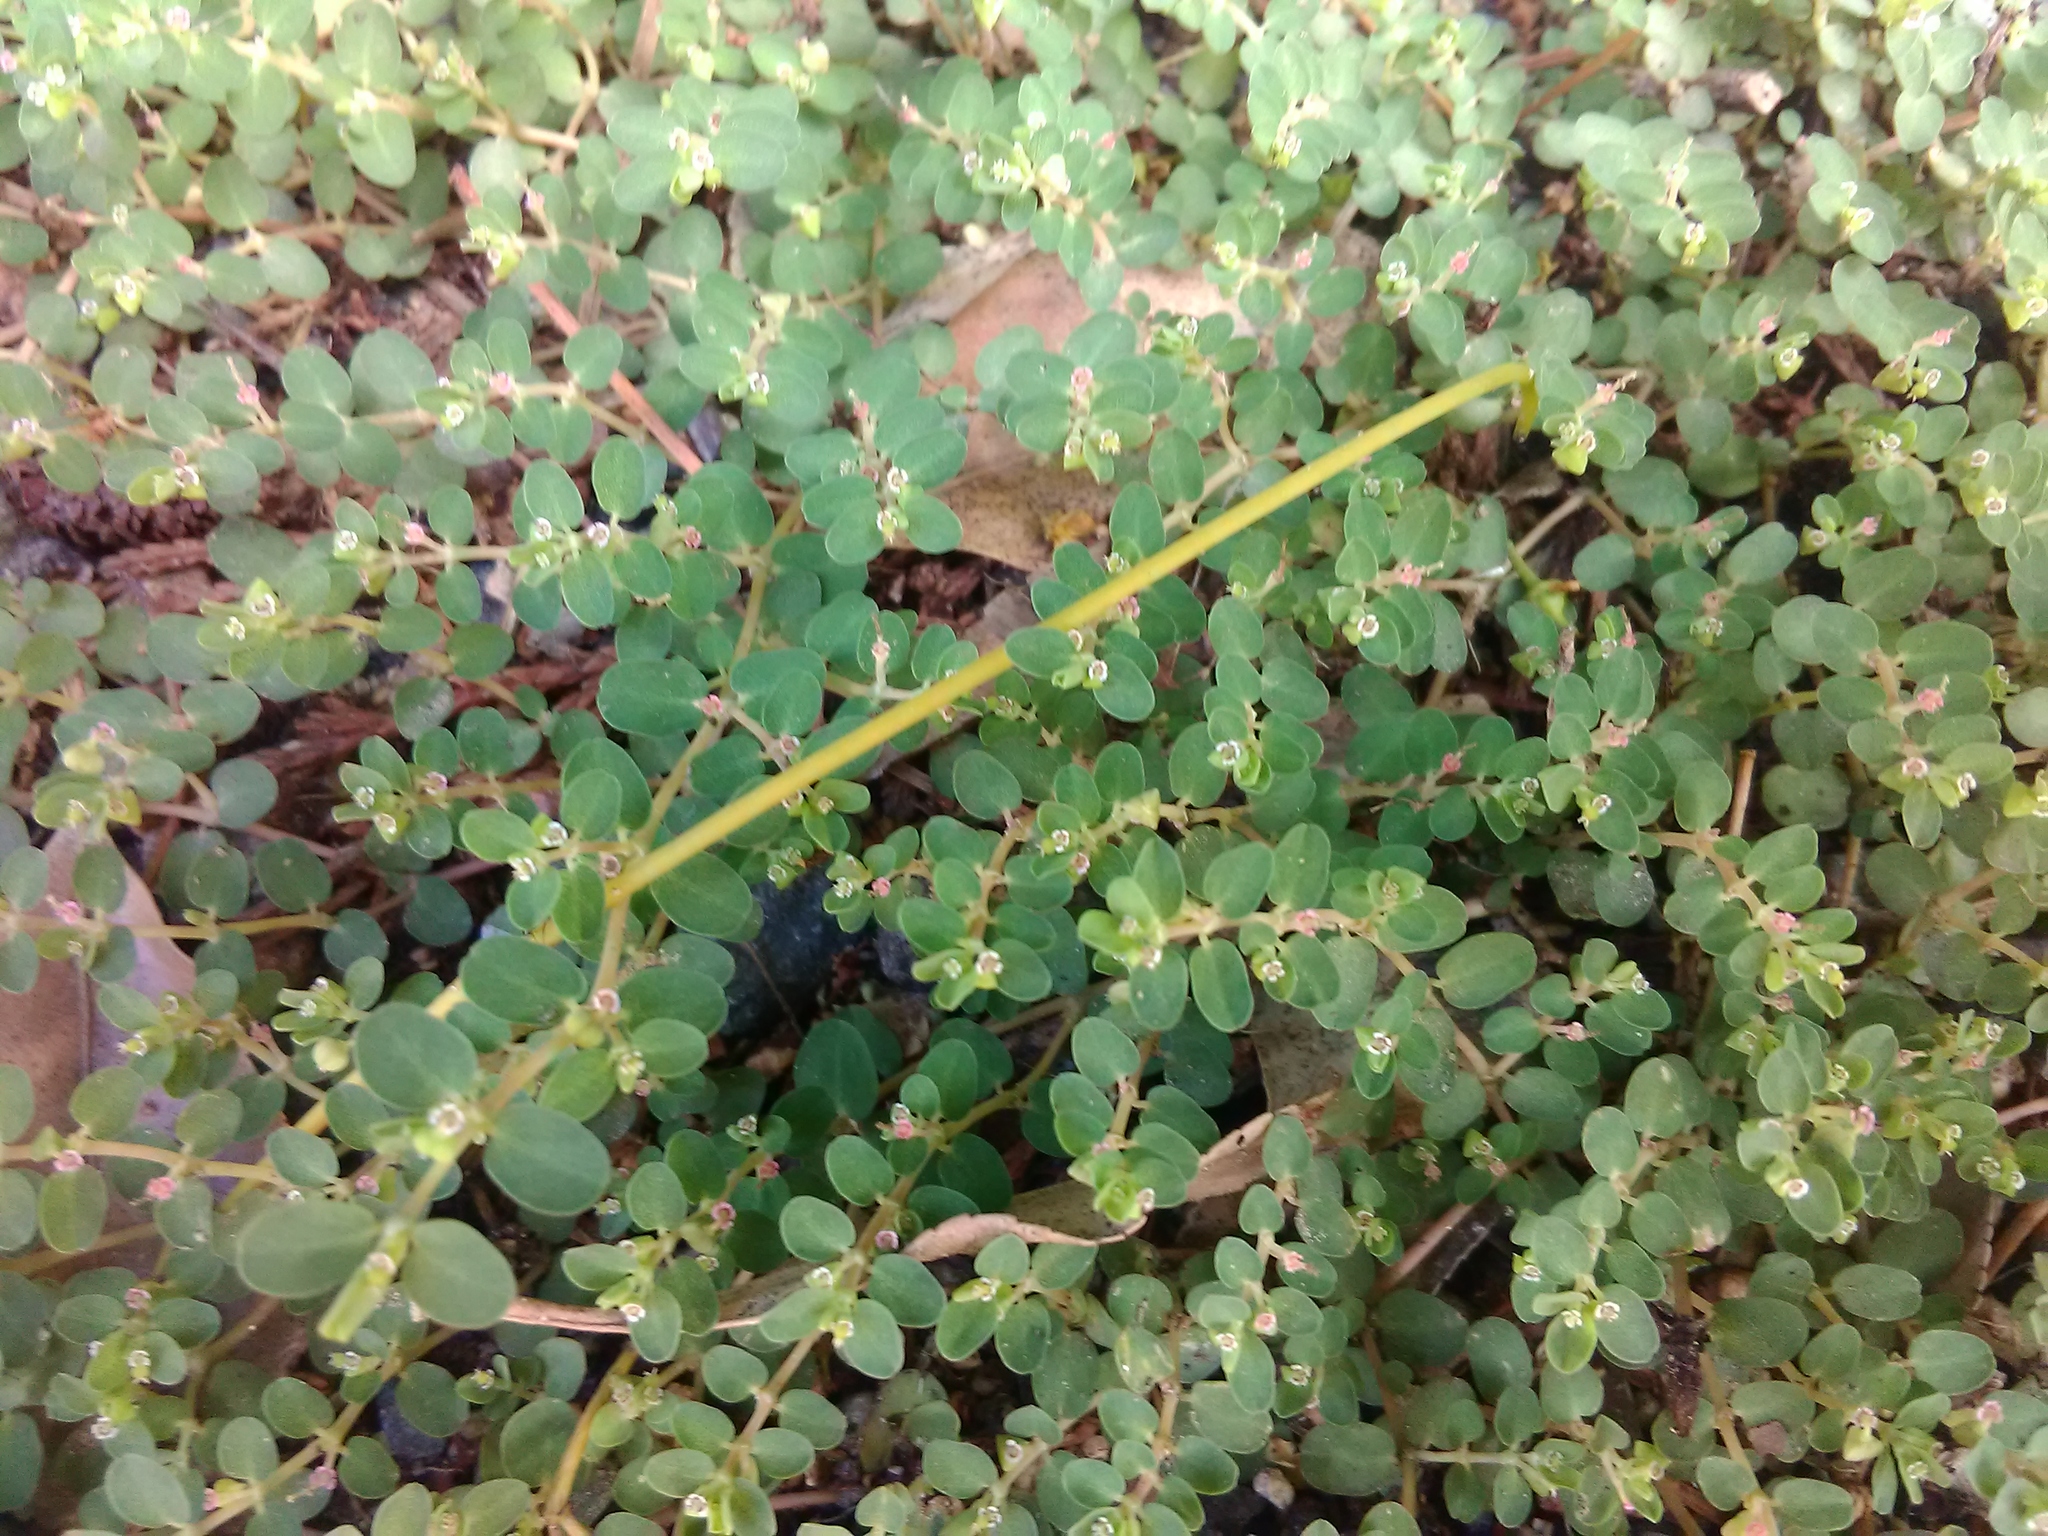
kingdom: Plantae
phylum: Tracheophyta
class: Magnoliopsida
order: Malpighiales
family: Euphorbiaceae
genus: Euphorbia
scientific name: Euphorbia serpens
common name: Matted sandmat
